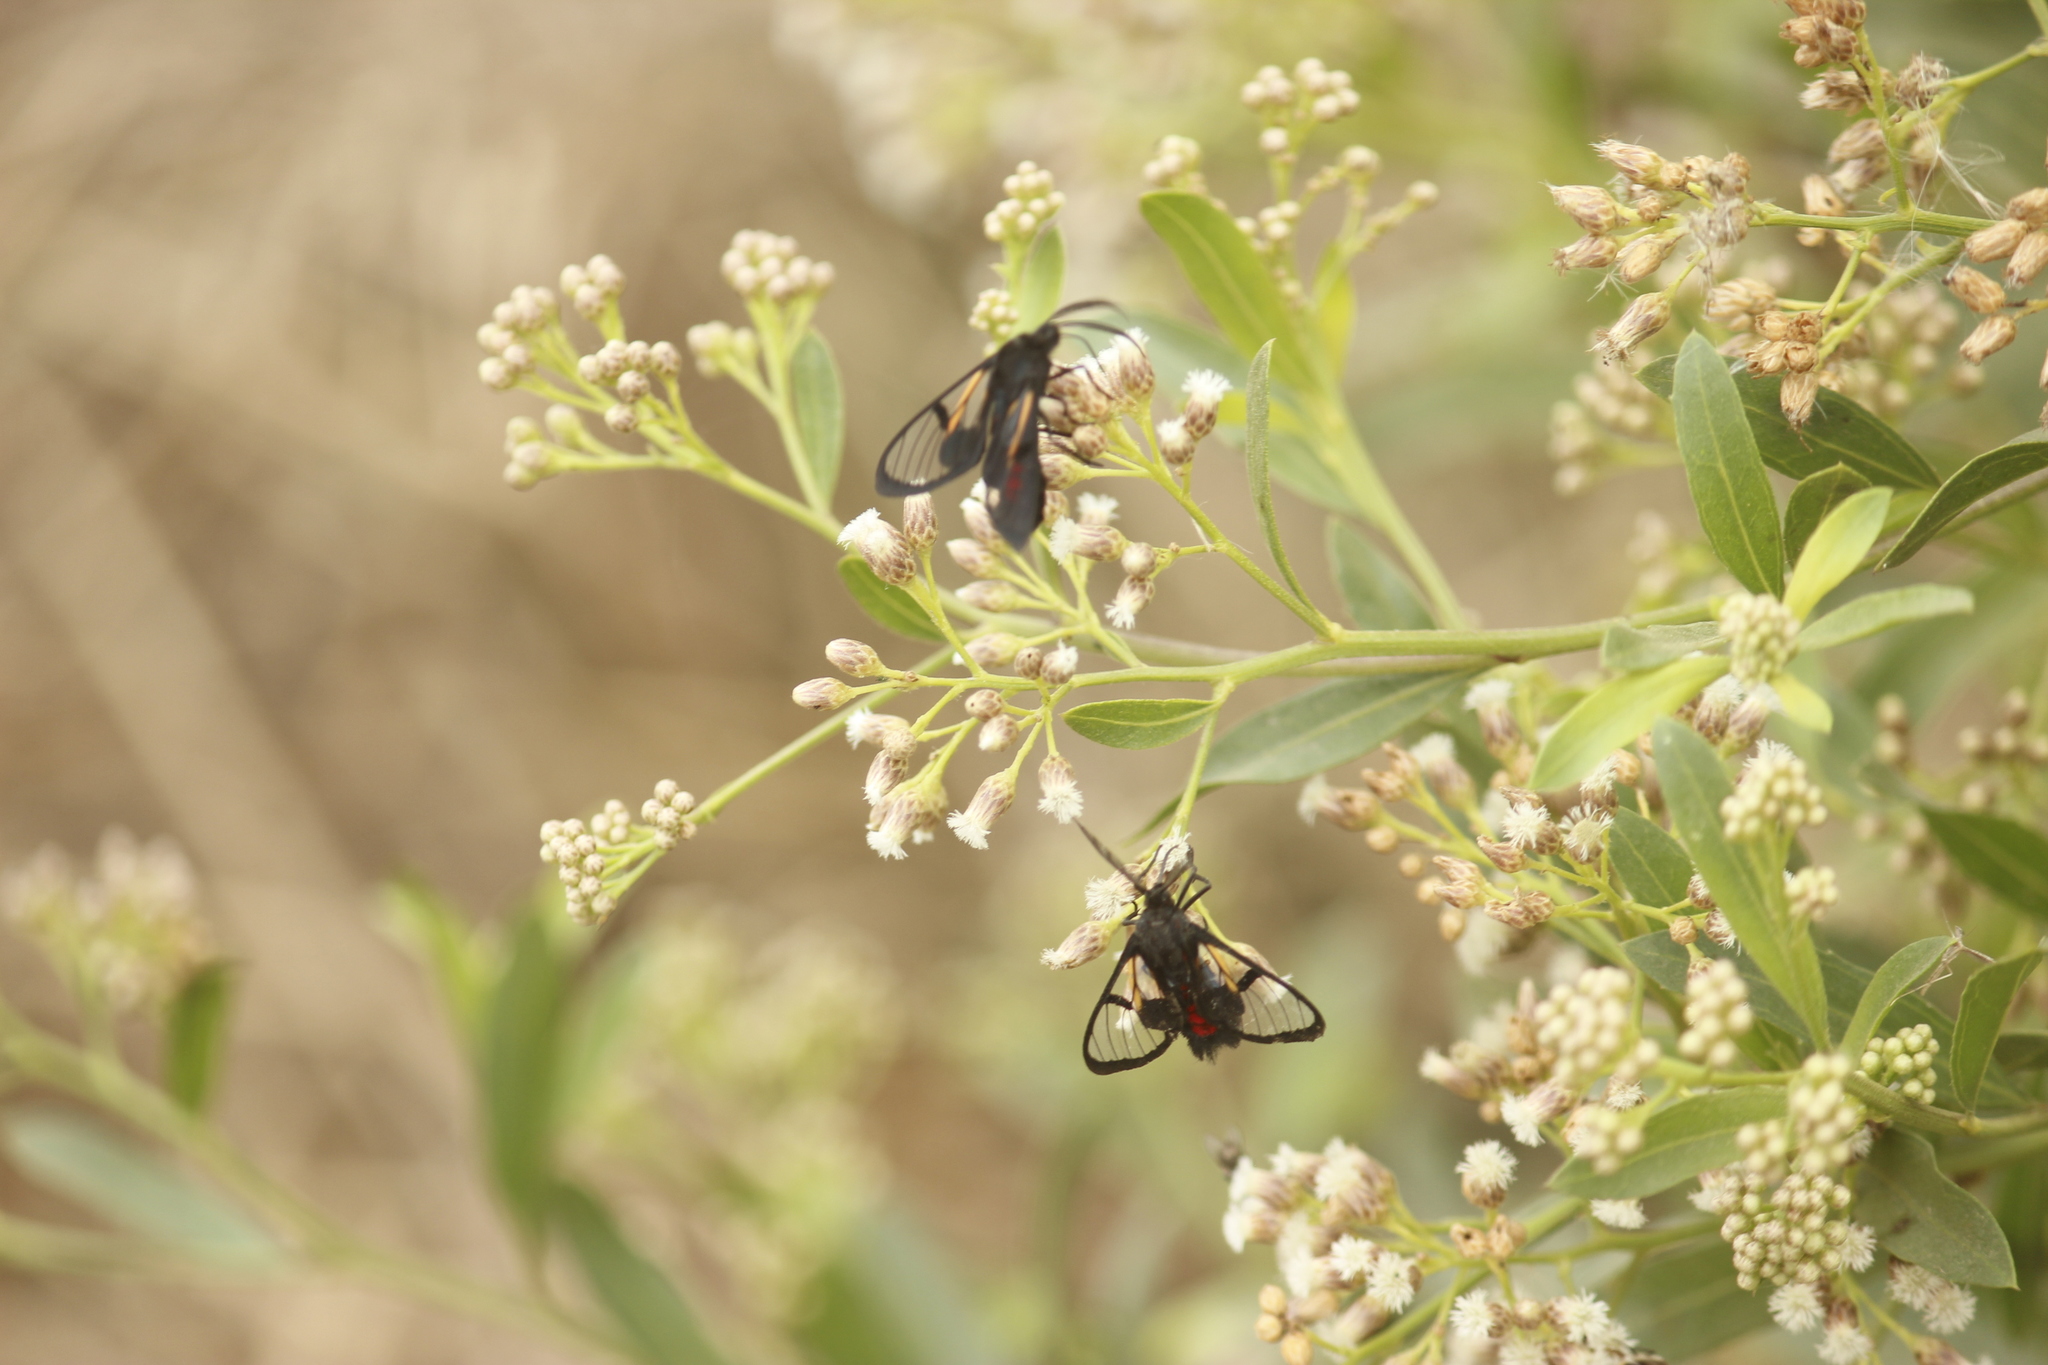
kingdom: Animalia
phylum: Arthropoda
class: Insecta
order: Lepidoptera
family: Erebidae
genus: Dinia
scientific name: Dinia subapicalis
